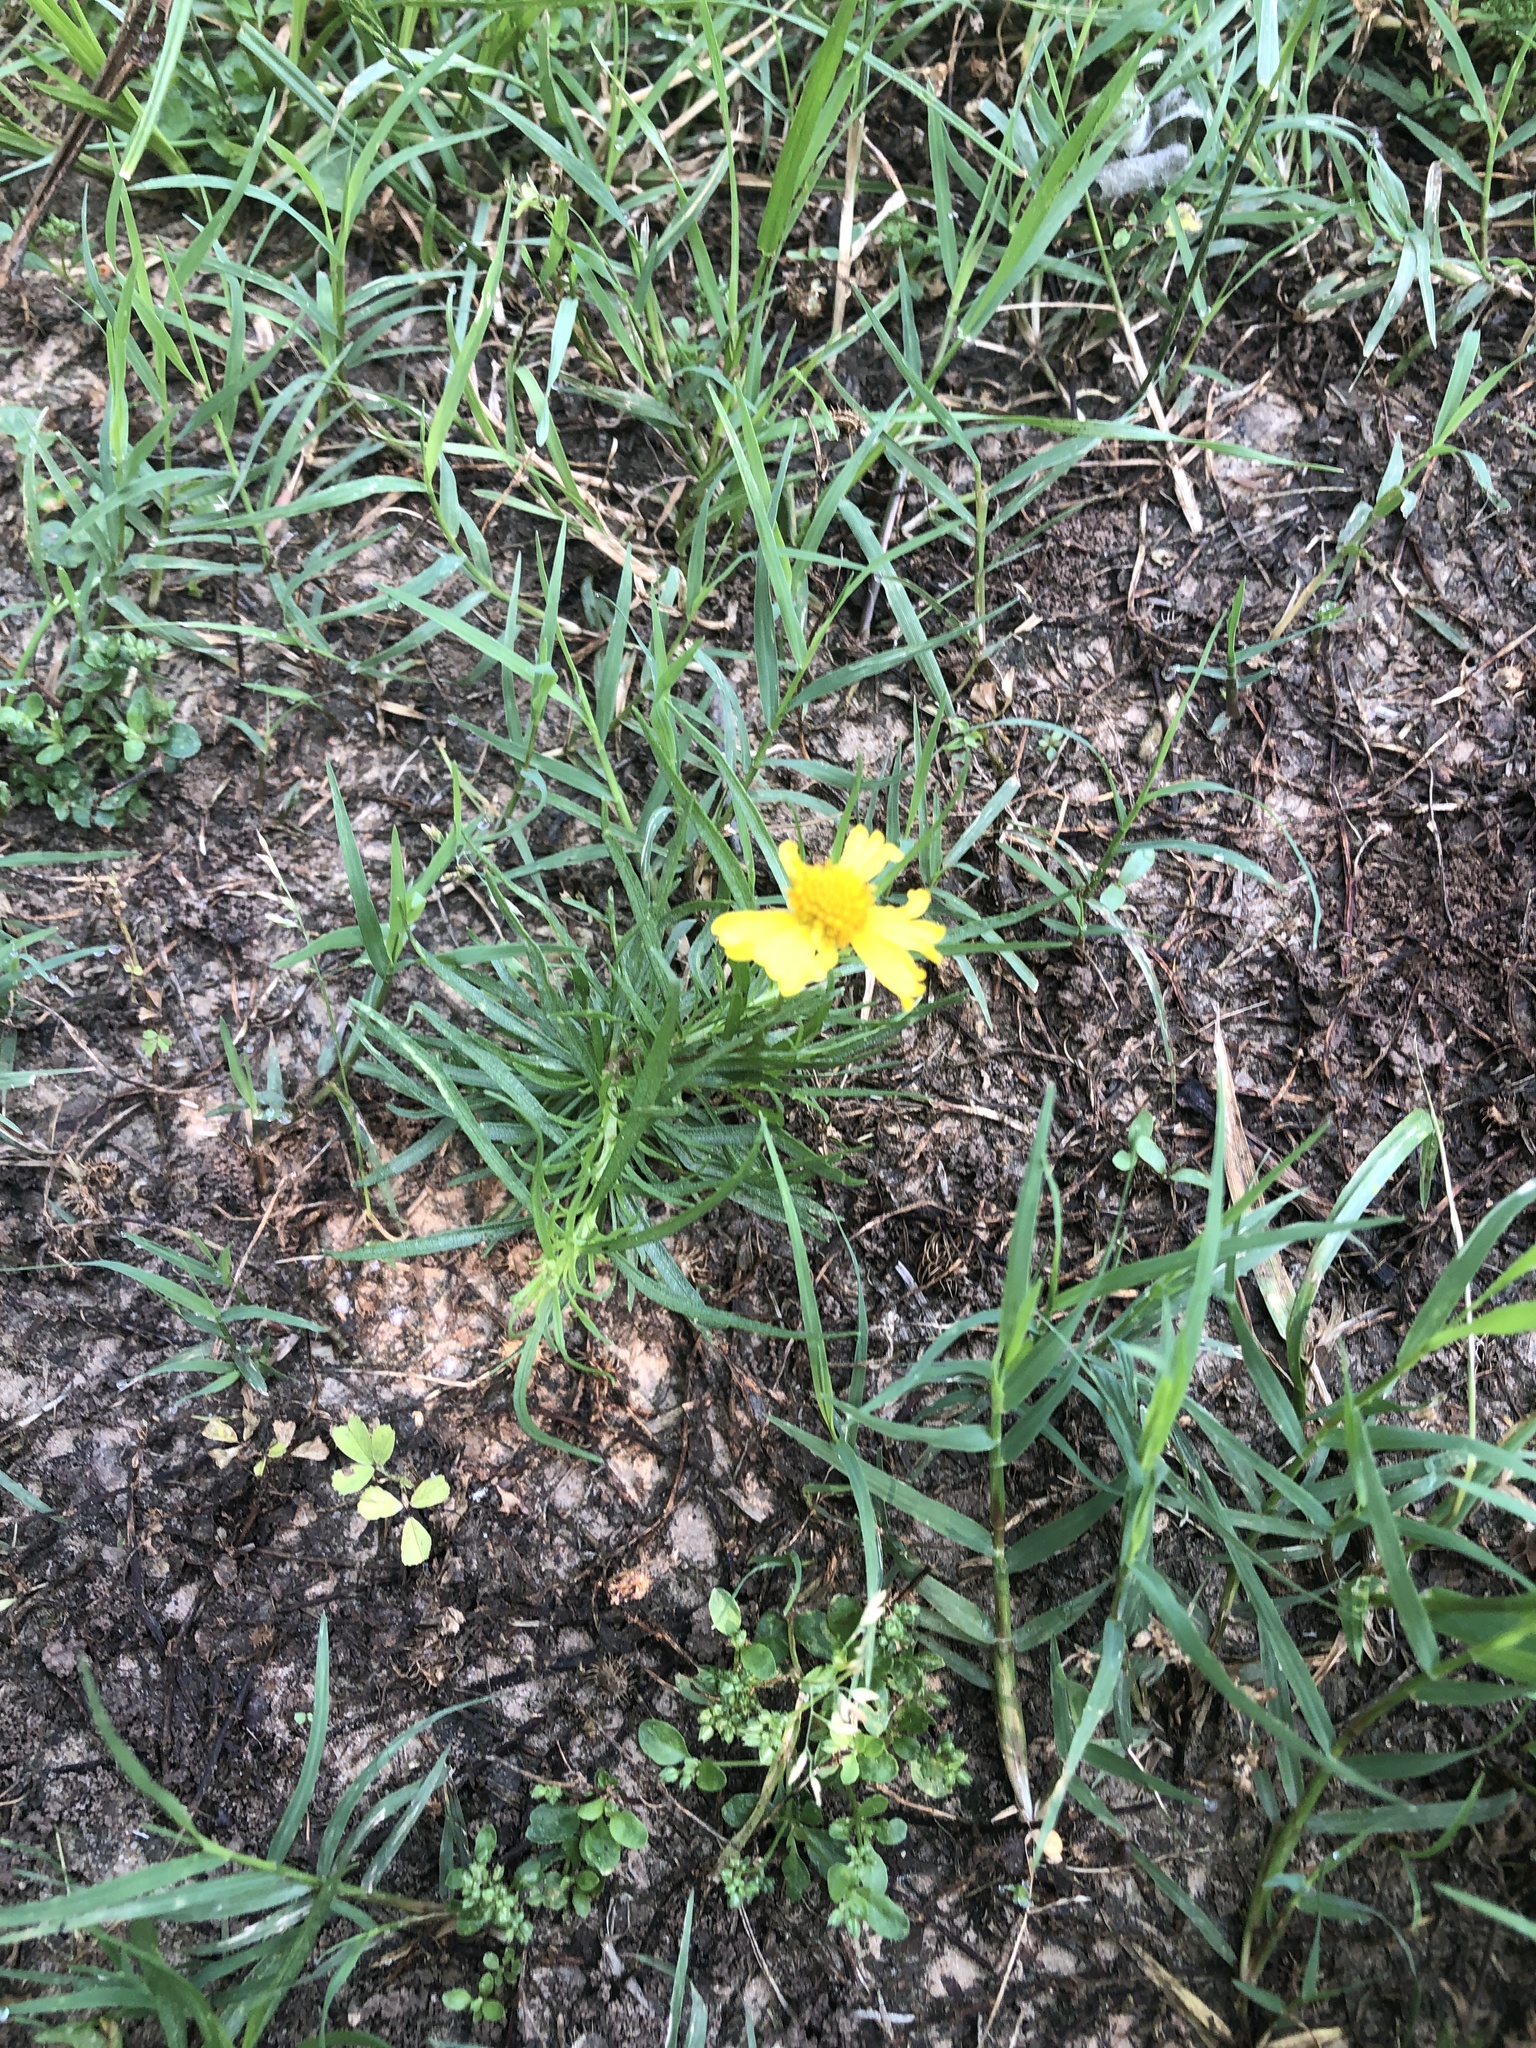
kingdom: Plantae
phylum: Tracheophyta
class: Magnoliopsida
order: Asterales
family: Asteraceae
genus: Helenium
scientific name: Helenium amarum
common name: Bitter sneezeweed
